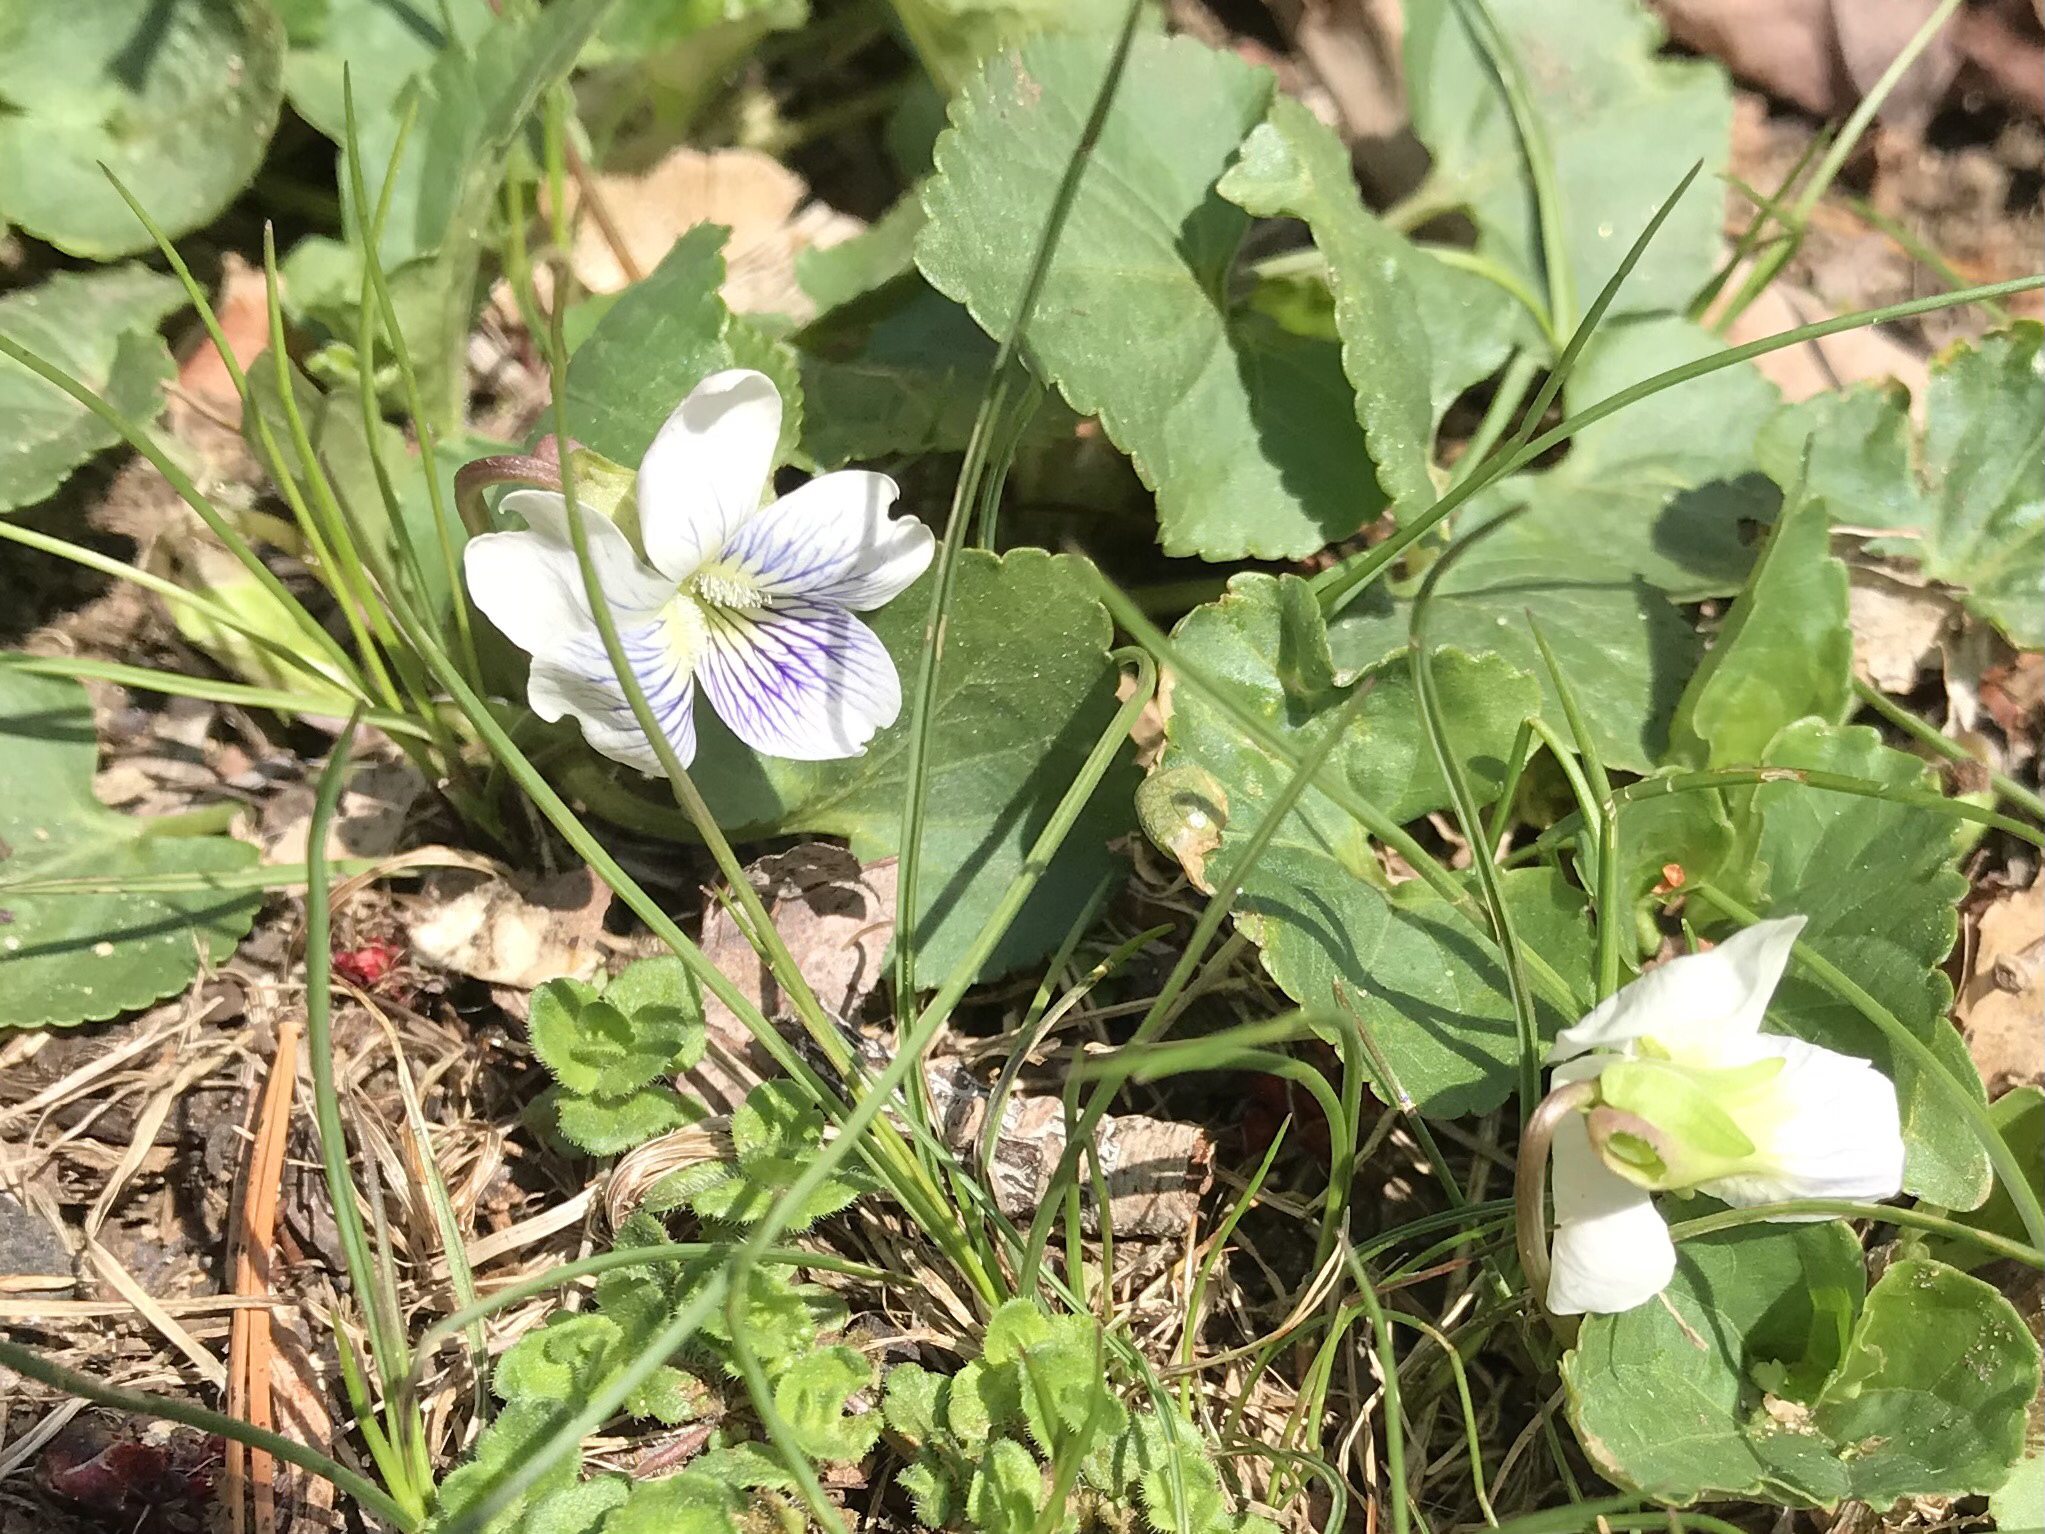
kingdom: Plantae
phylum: Tracheophyta
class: Magnoliopsida
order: Malpighiales
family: Violaceae
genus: Viola
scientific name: Viola minuscula
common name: Northern white violet
